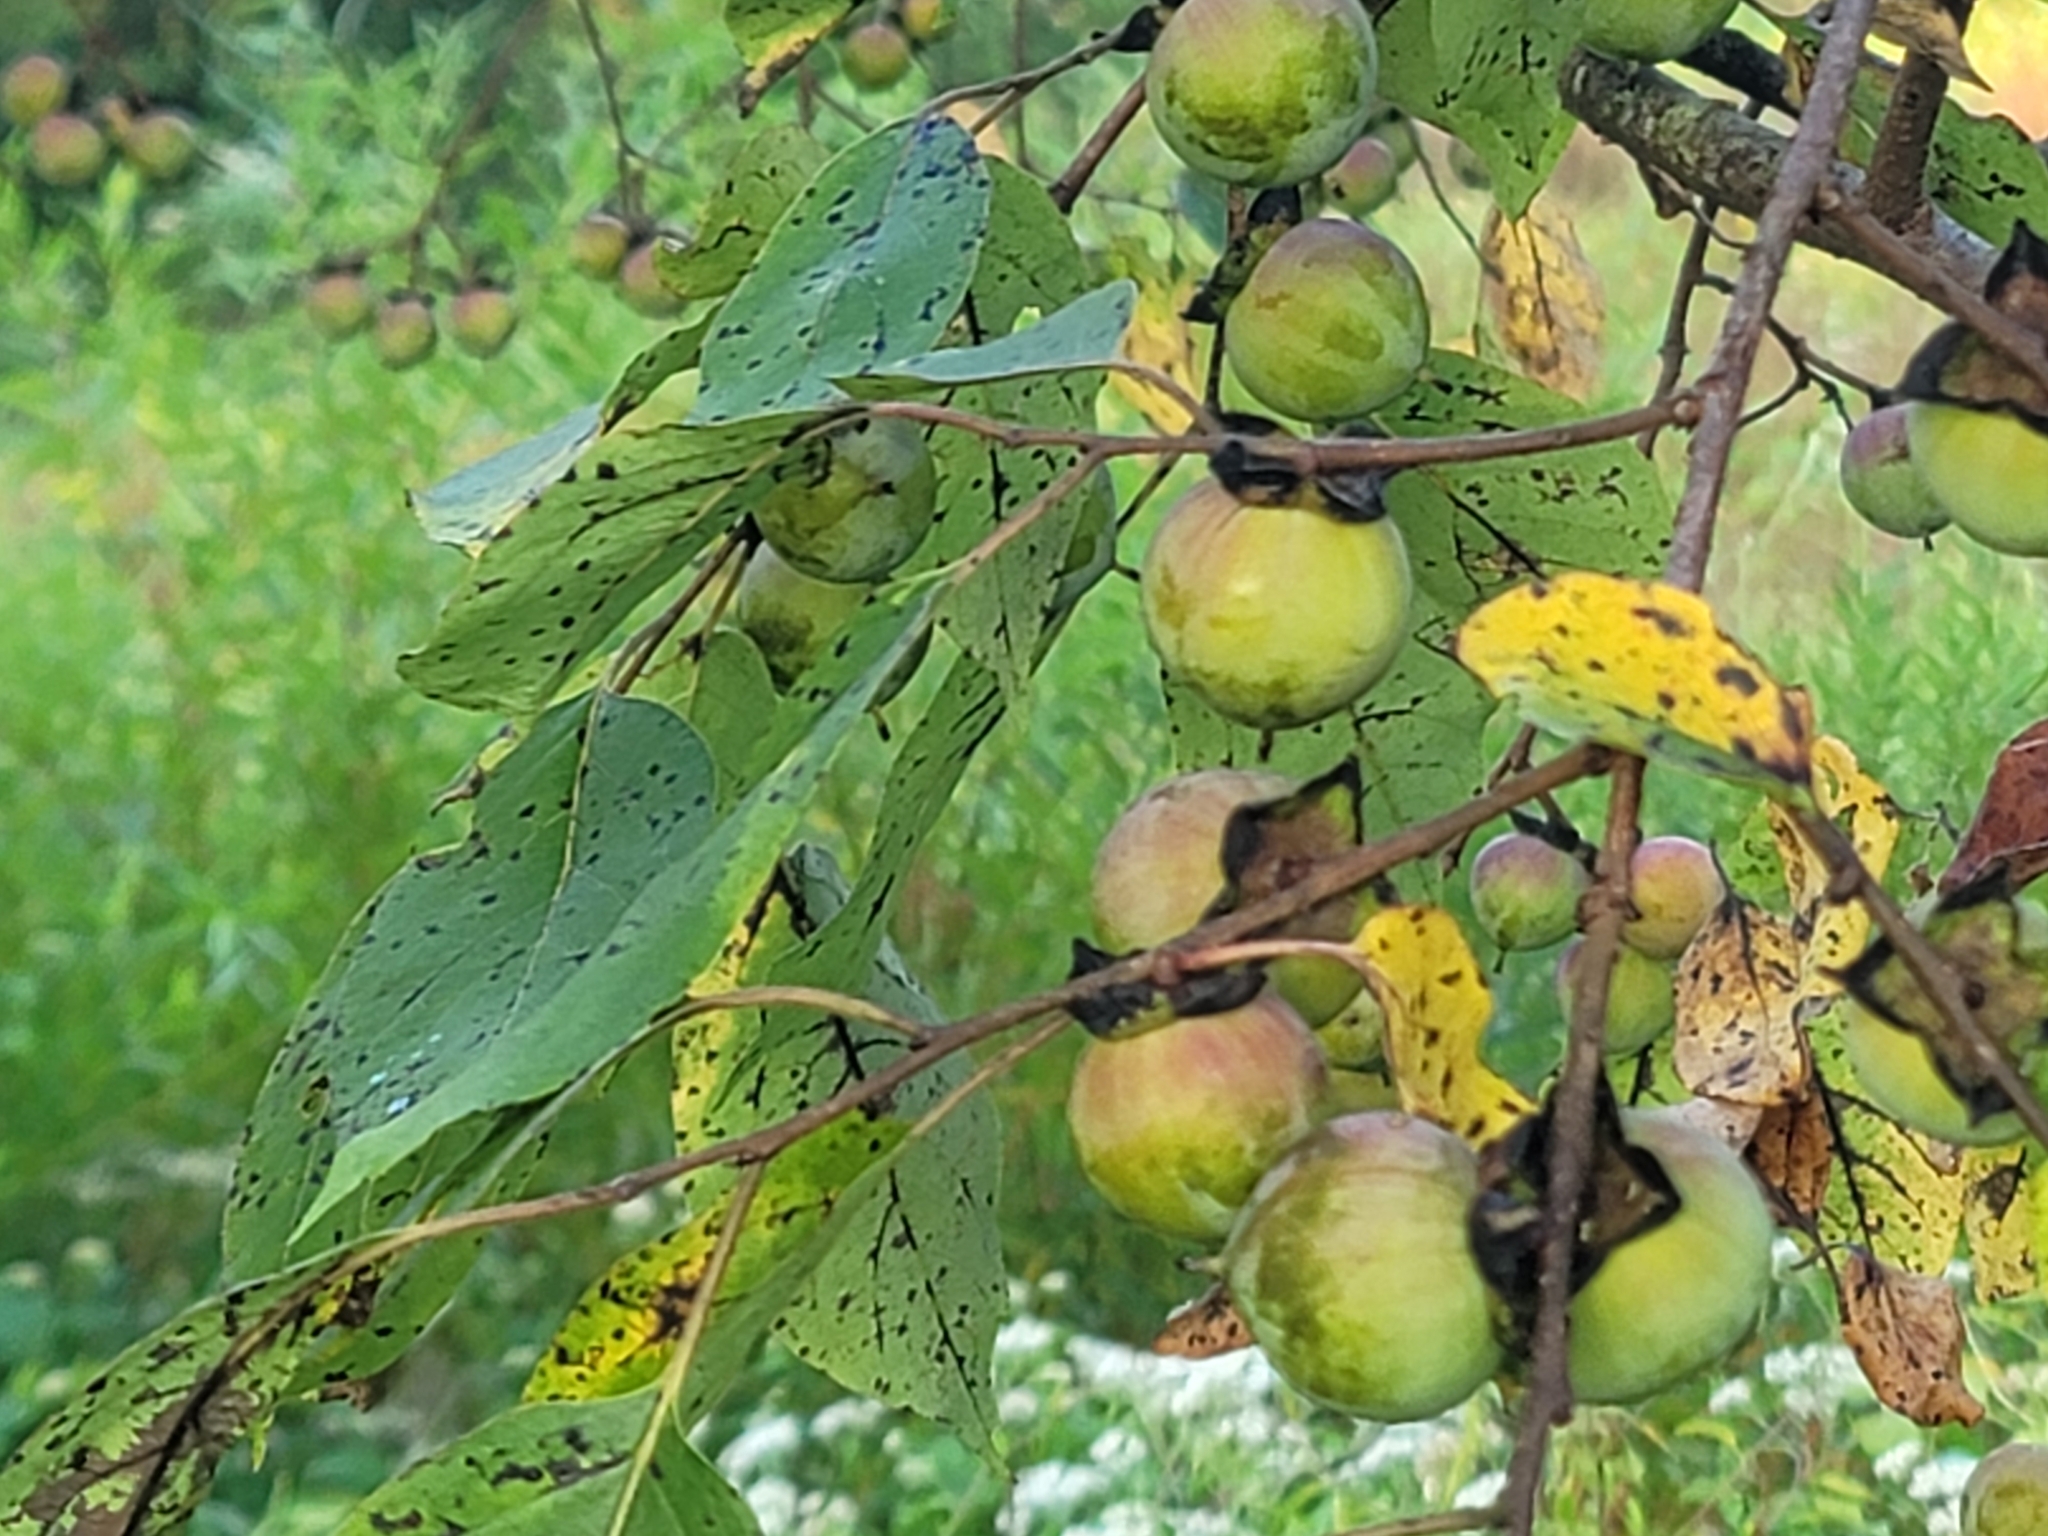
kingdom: Plantae
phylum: Tracheophyta
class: Magnoliopsida
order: Ericales
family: Ebenaceae
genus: Diospyros
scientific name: Diospyros virginiana
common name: Persimmon
